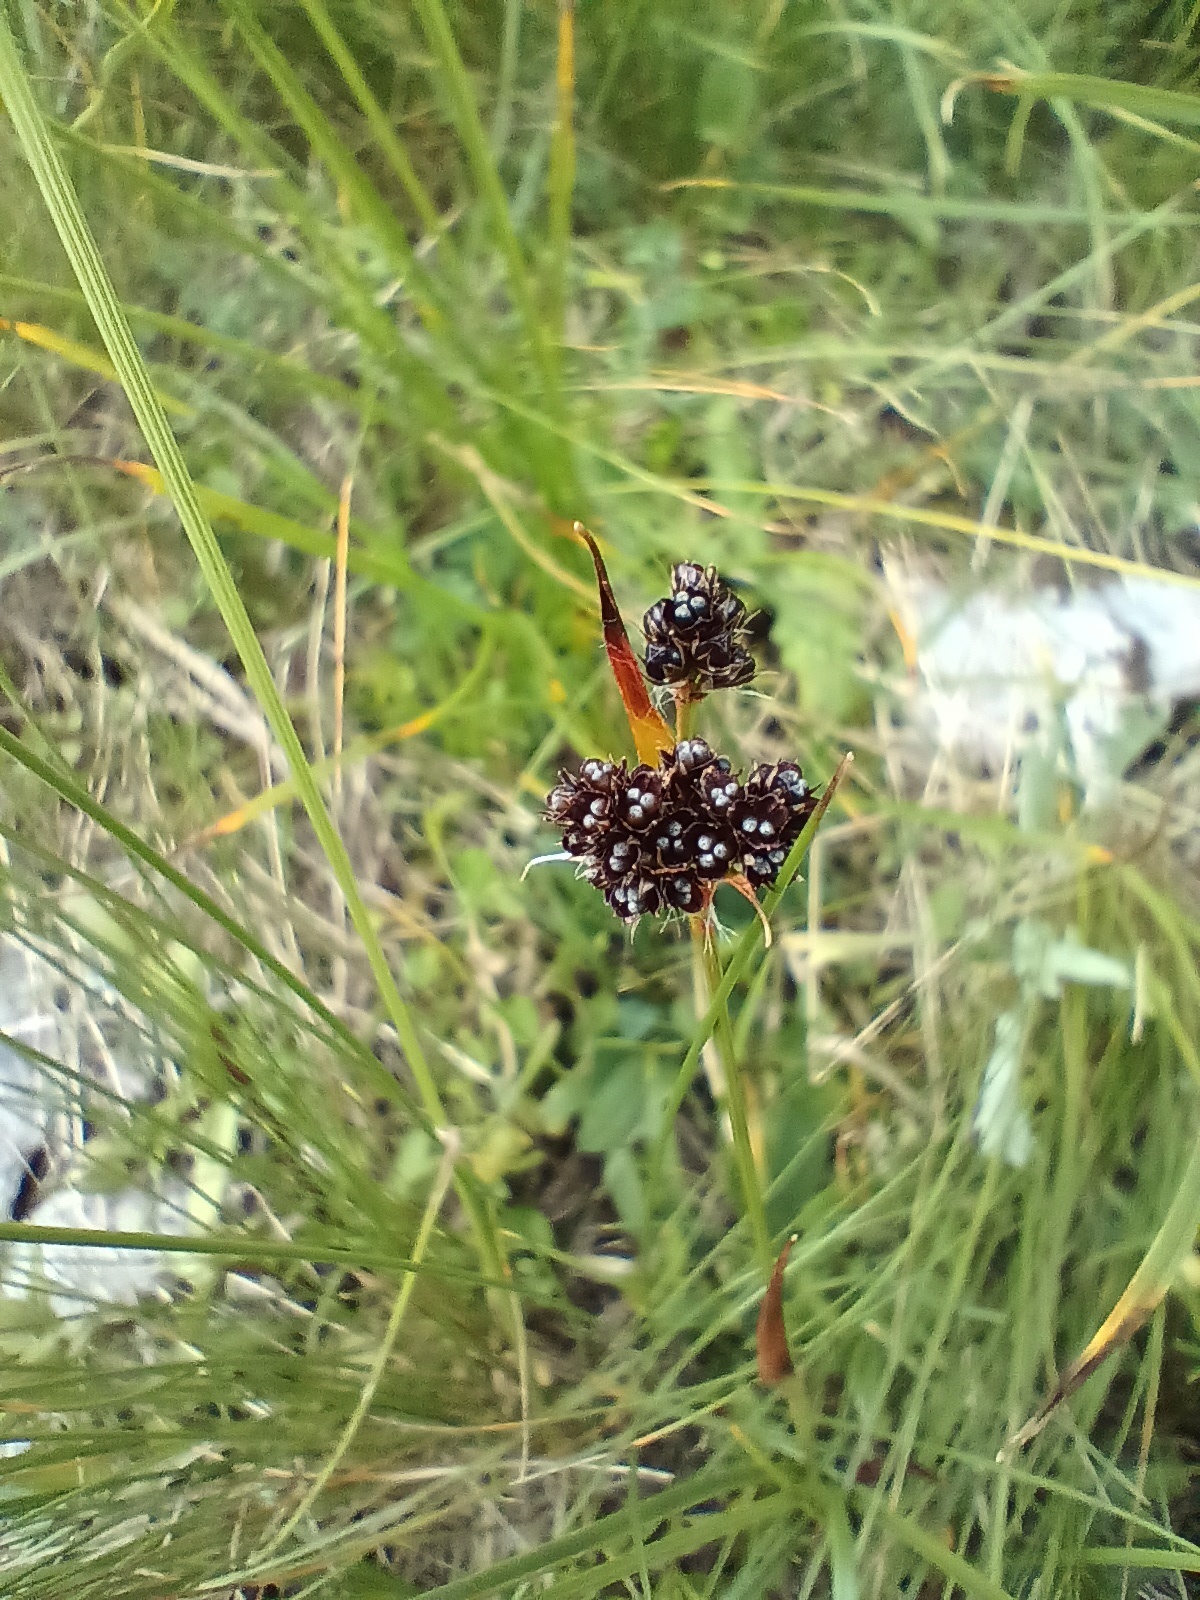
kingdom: Plantae
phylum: Tracheophyta
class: Liliopsida
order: Poales
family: Juncaceae
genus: Luzula
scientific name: Luzula alpina
